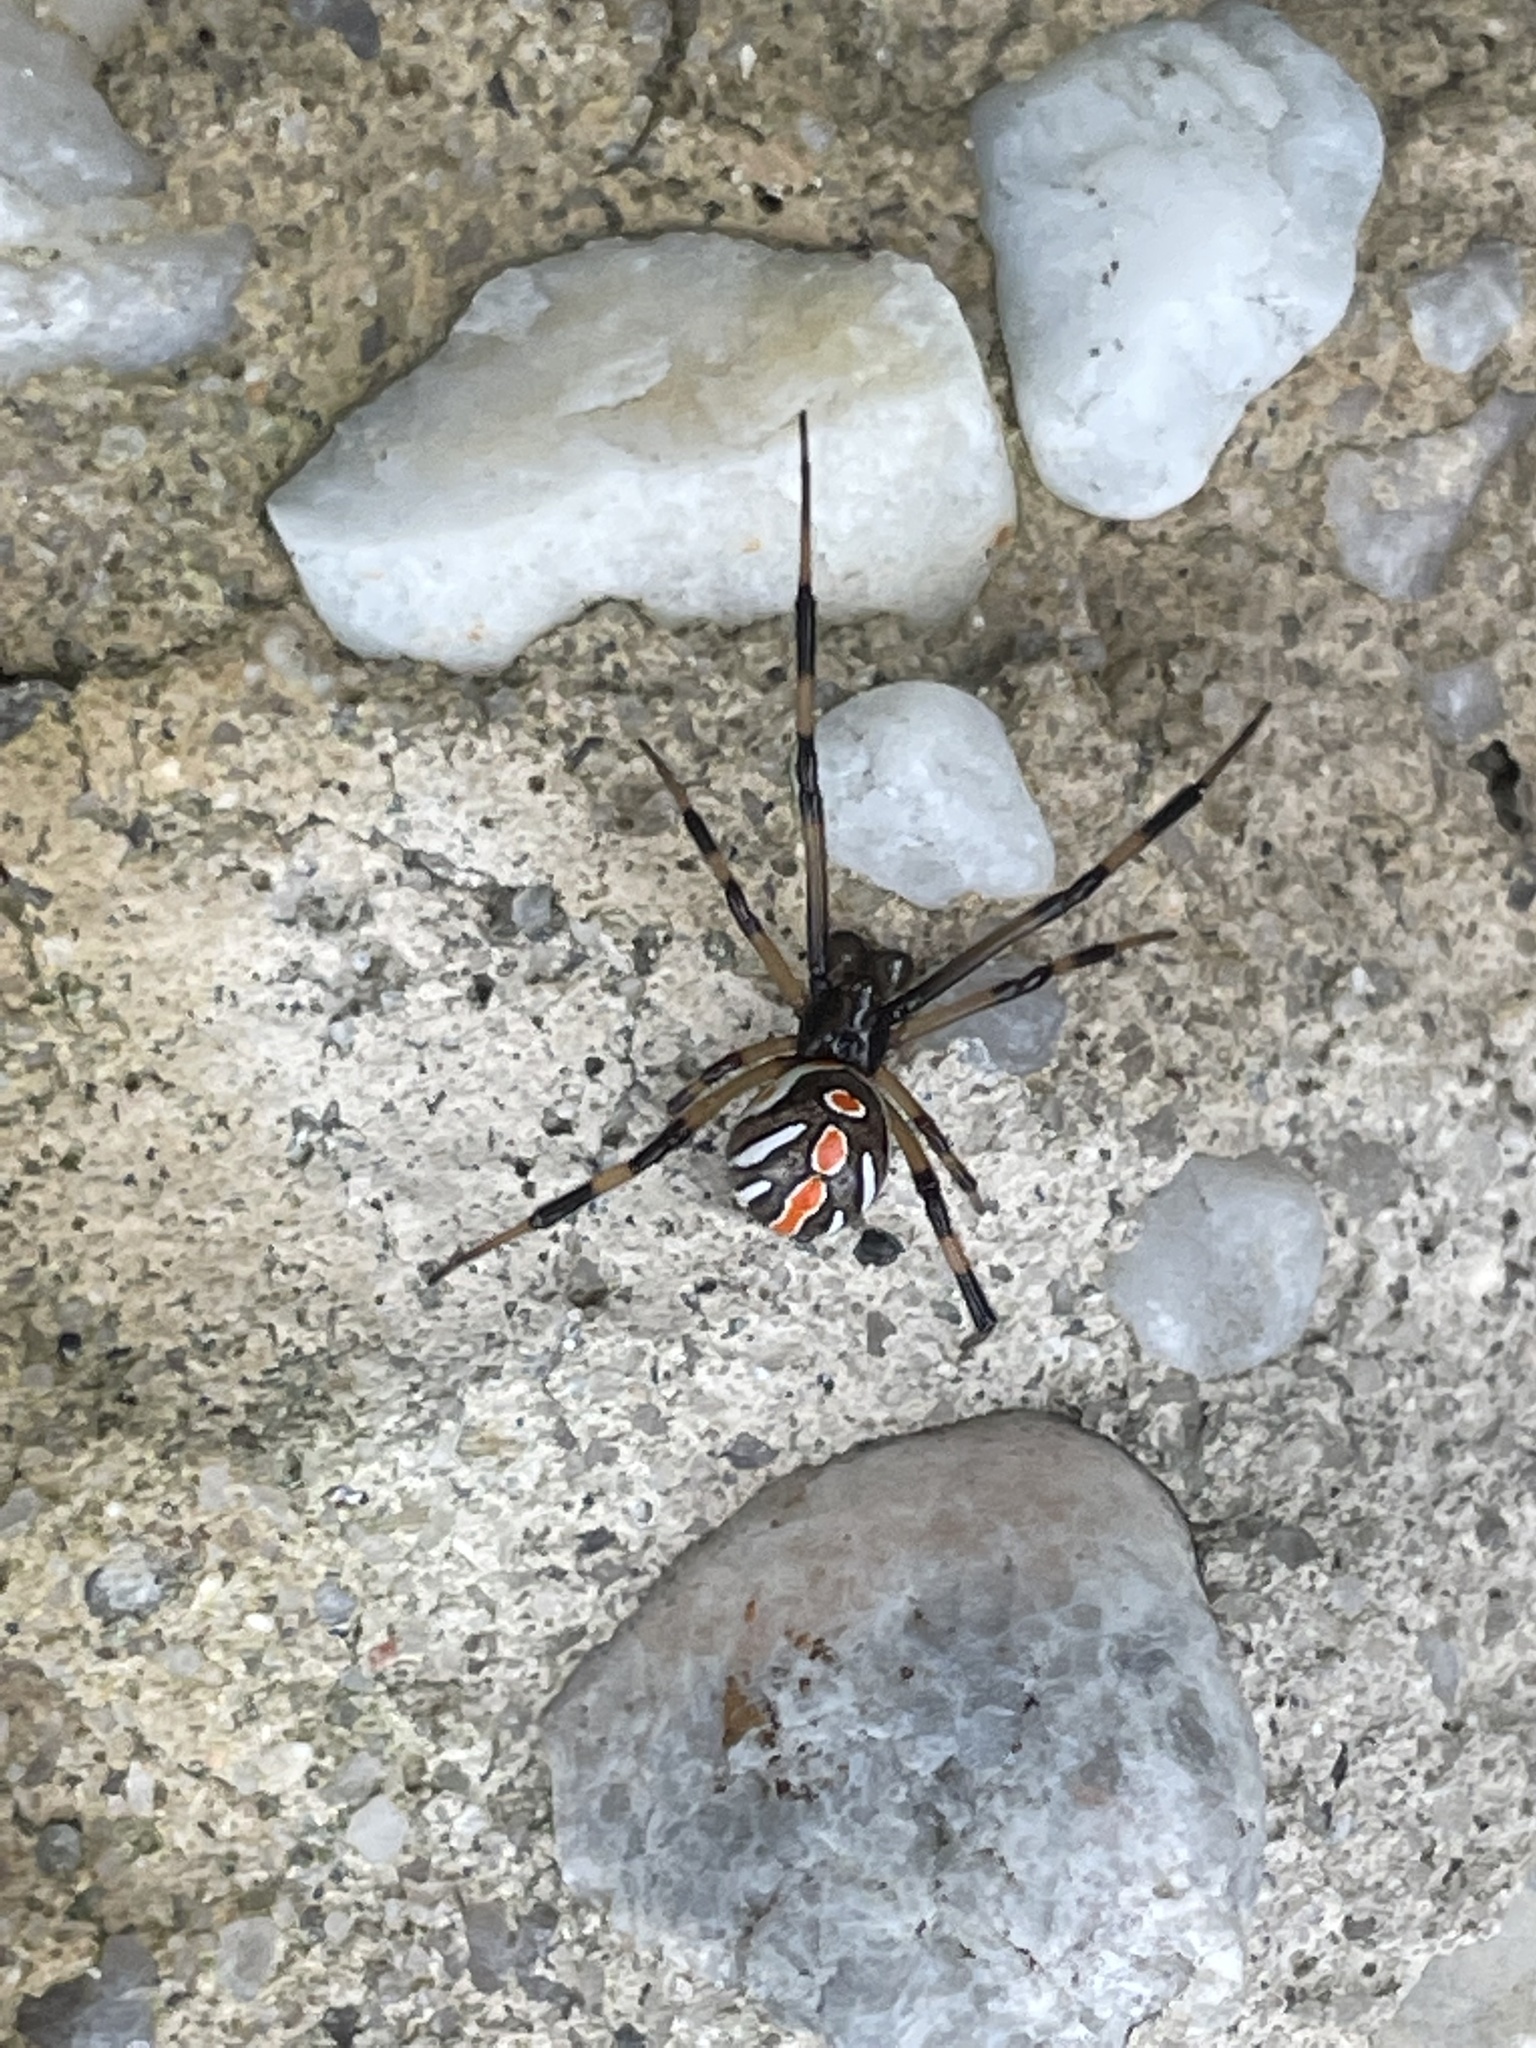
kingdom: Animalia
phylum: Arthropoda
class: Arachnida
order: Araneae
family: Theridiidae
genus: Latrodectus
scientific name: Latrodectus mactans
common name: Cobweb spiders
